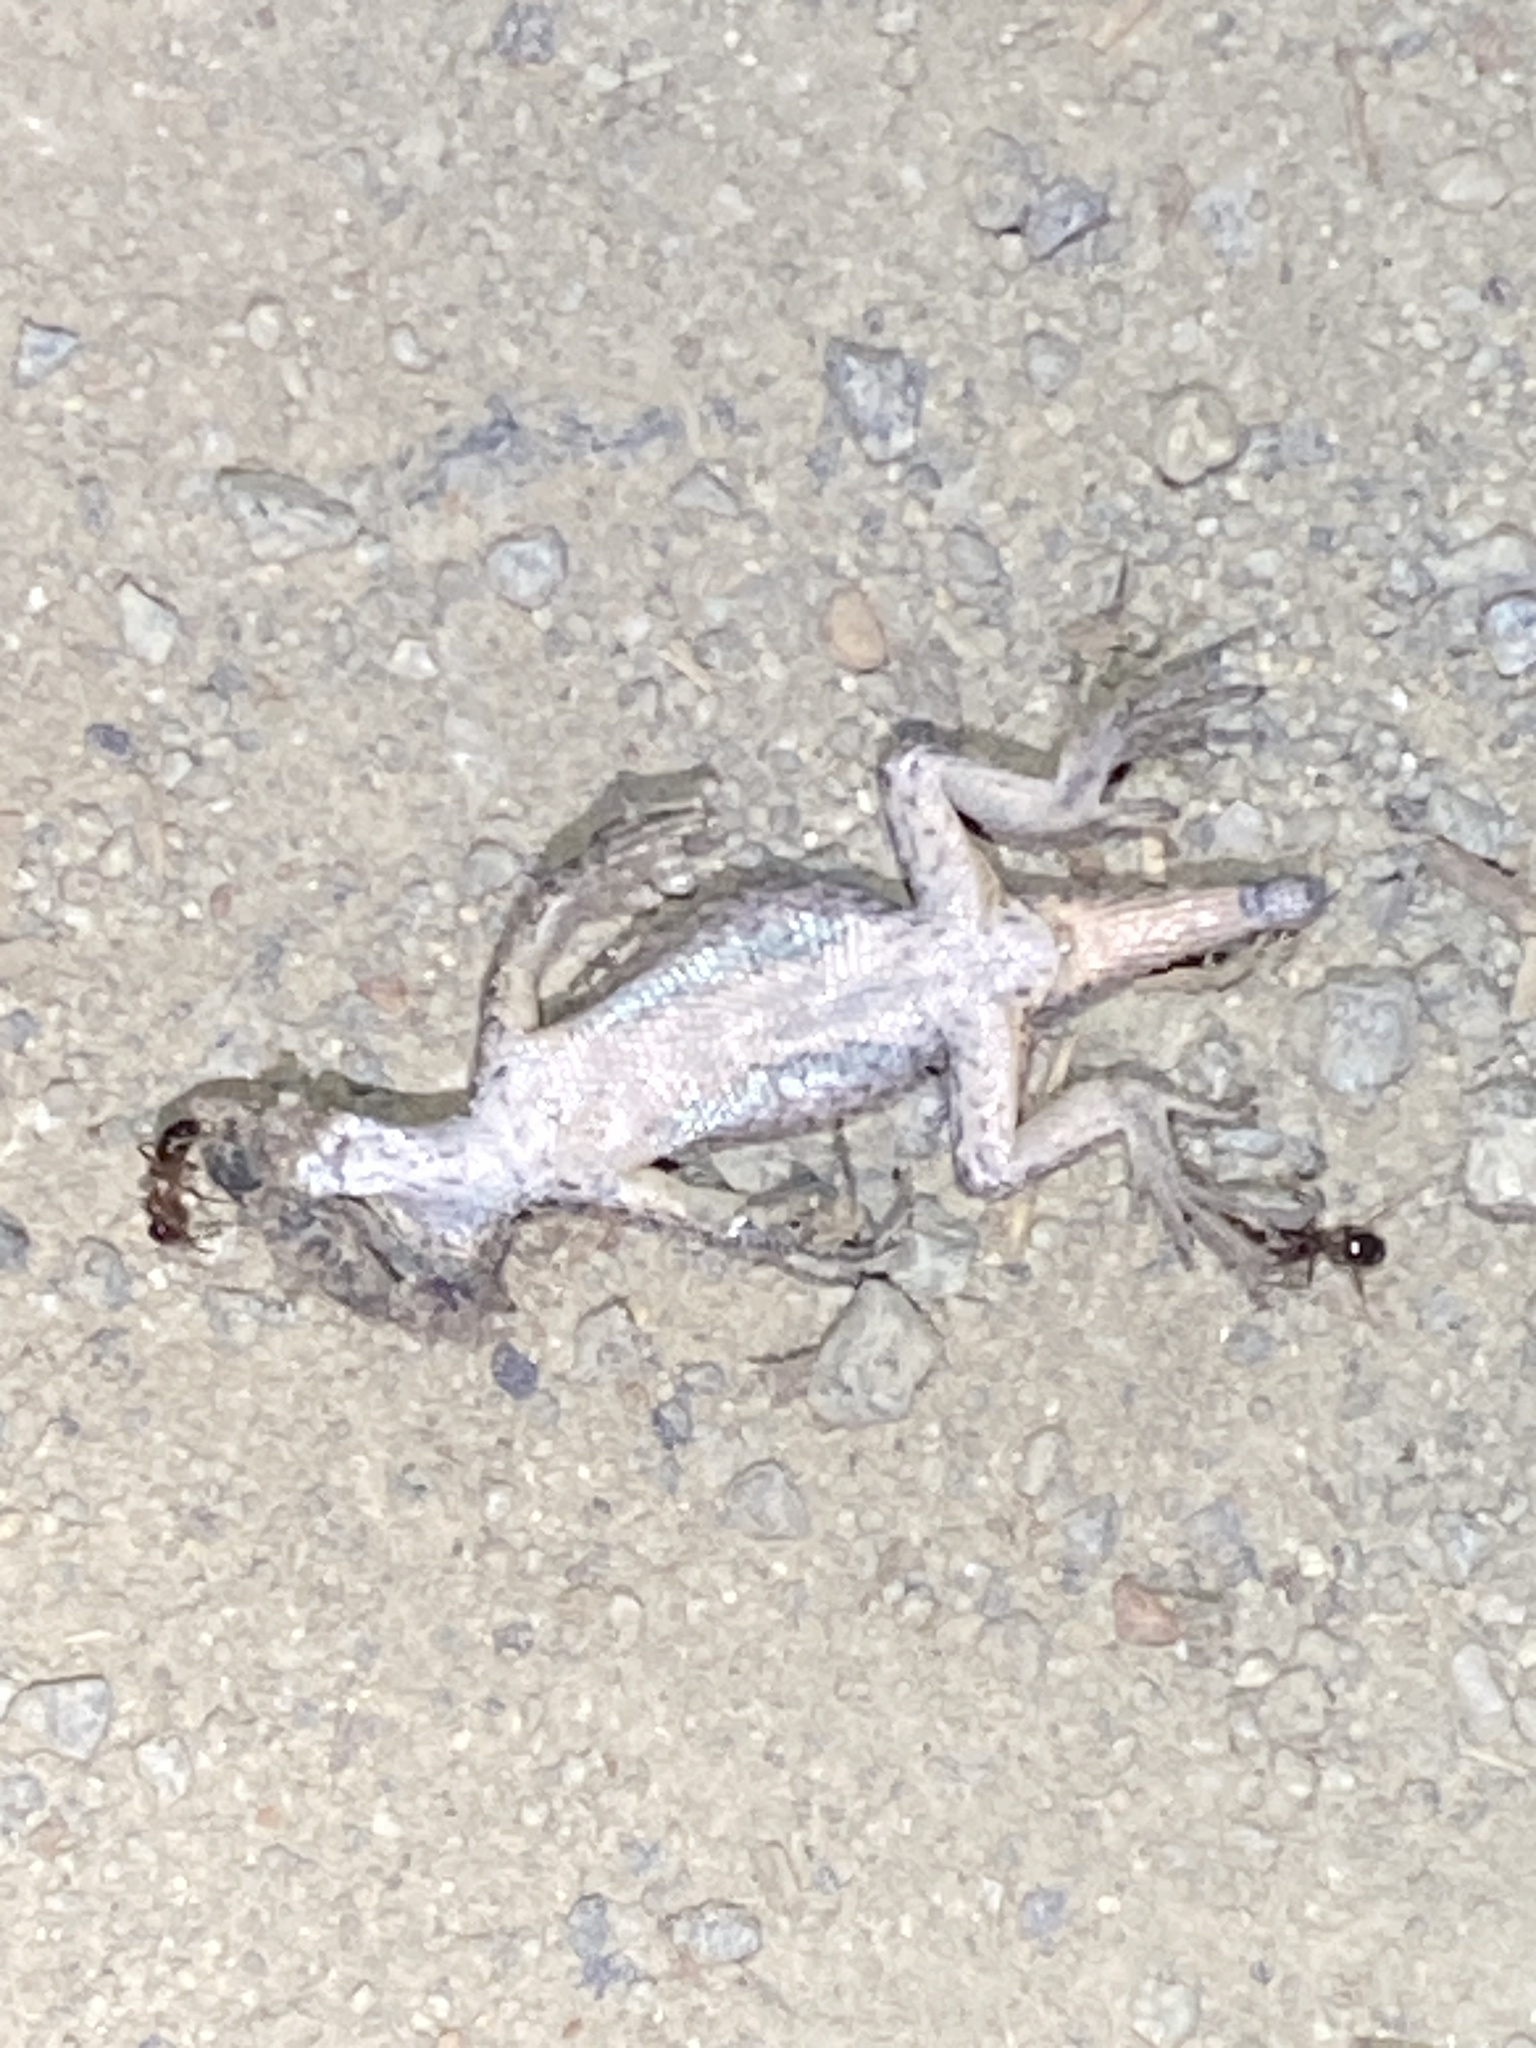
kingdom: Animalia
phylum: Chordata
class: Squamata
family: Phrynosomatidae
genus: Sceloporus
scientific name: Sceloporus occidentalis
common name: Western fence lizard
